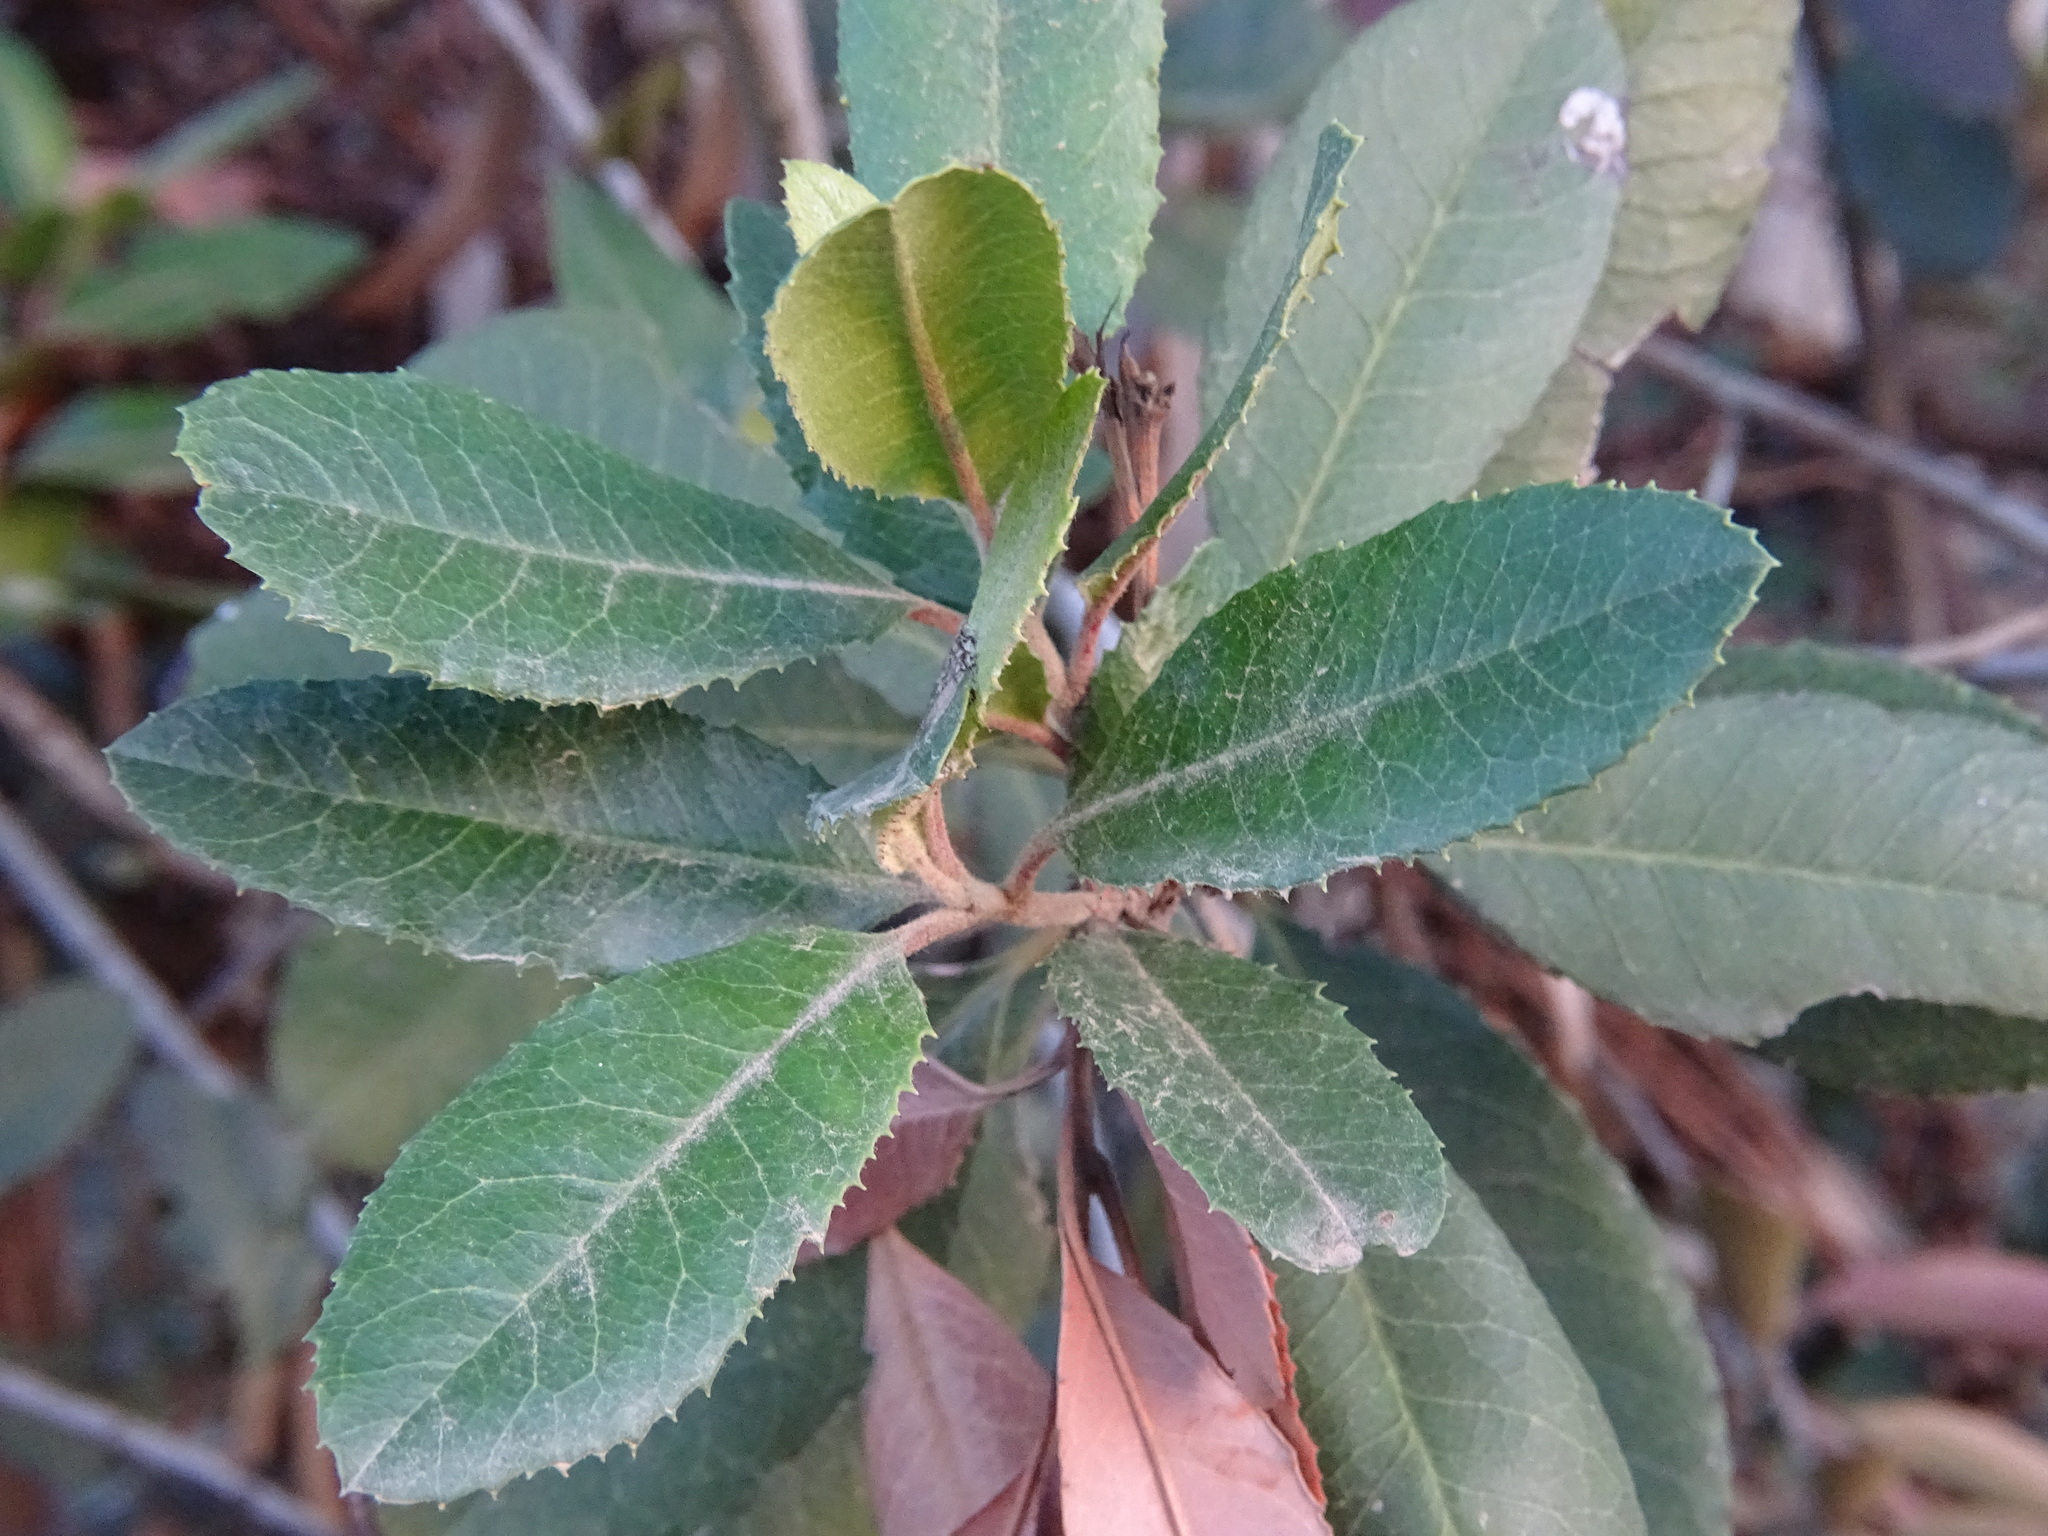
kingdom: Plantae
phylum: Tracheophyta
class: Magnoliopsida
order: Rosales
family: Rosaceae
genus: Heteromeles
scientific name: Heteromeles arbutifolia
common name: California-holly
